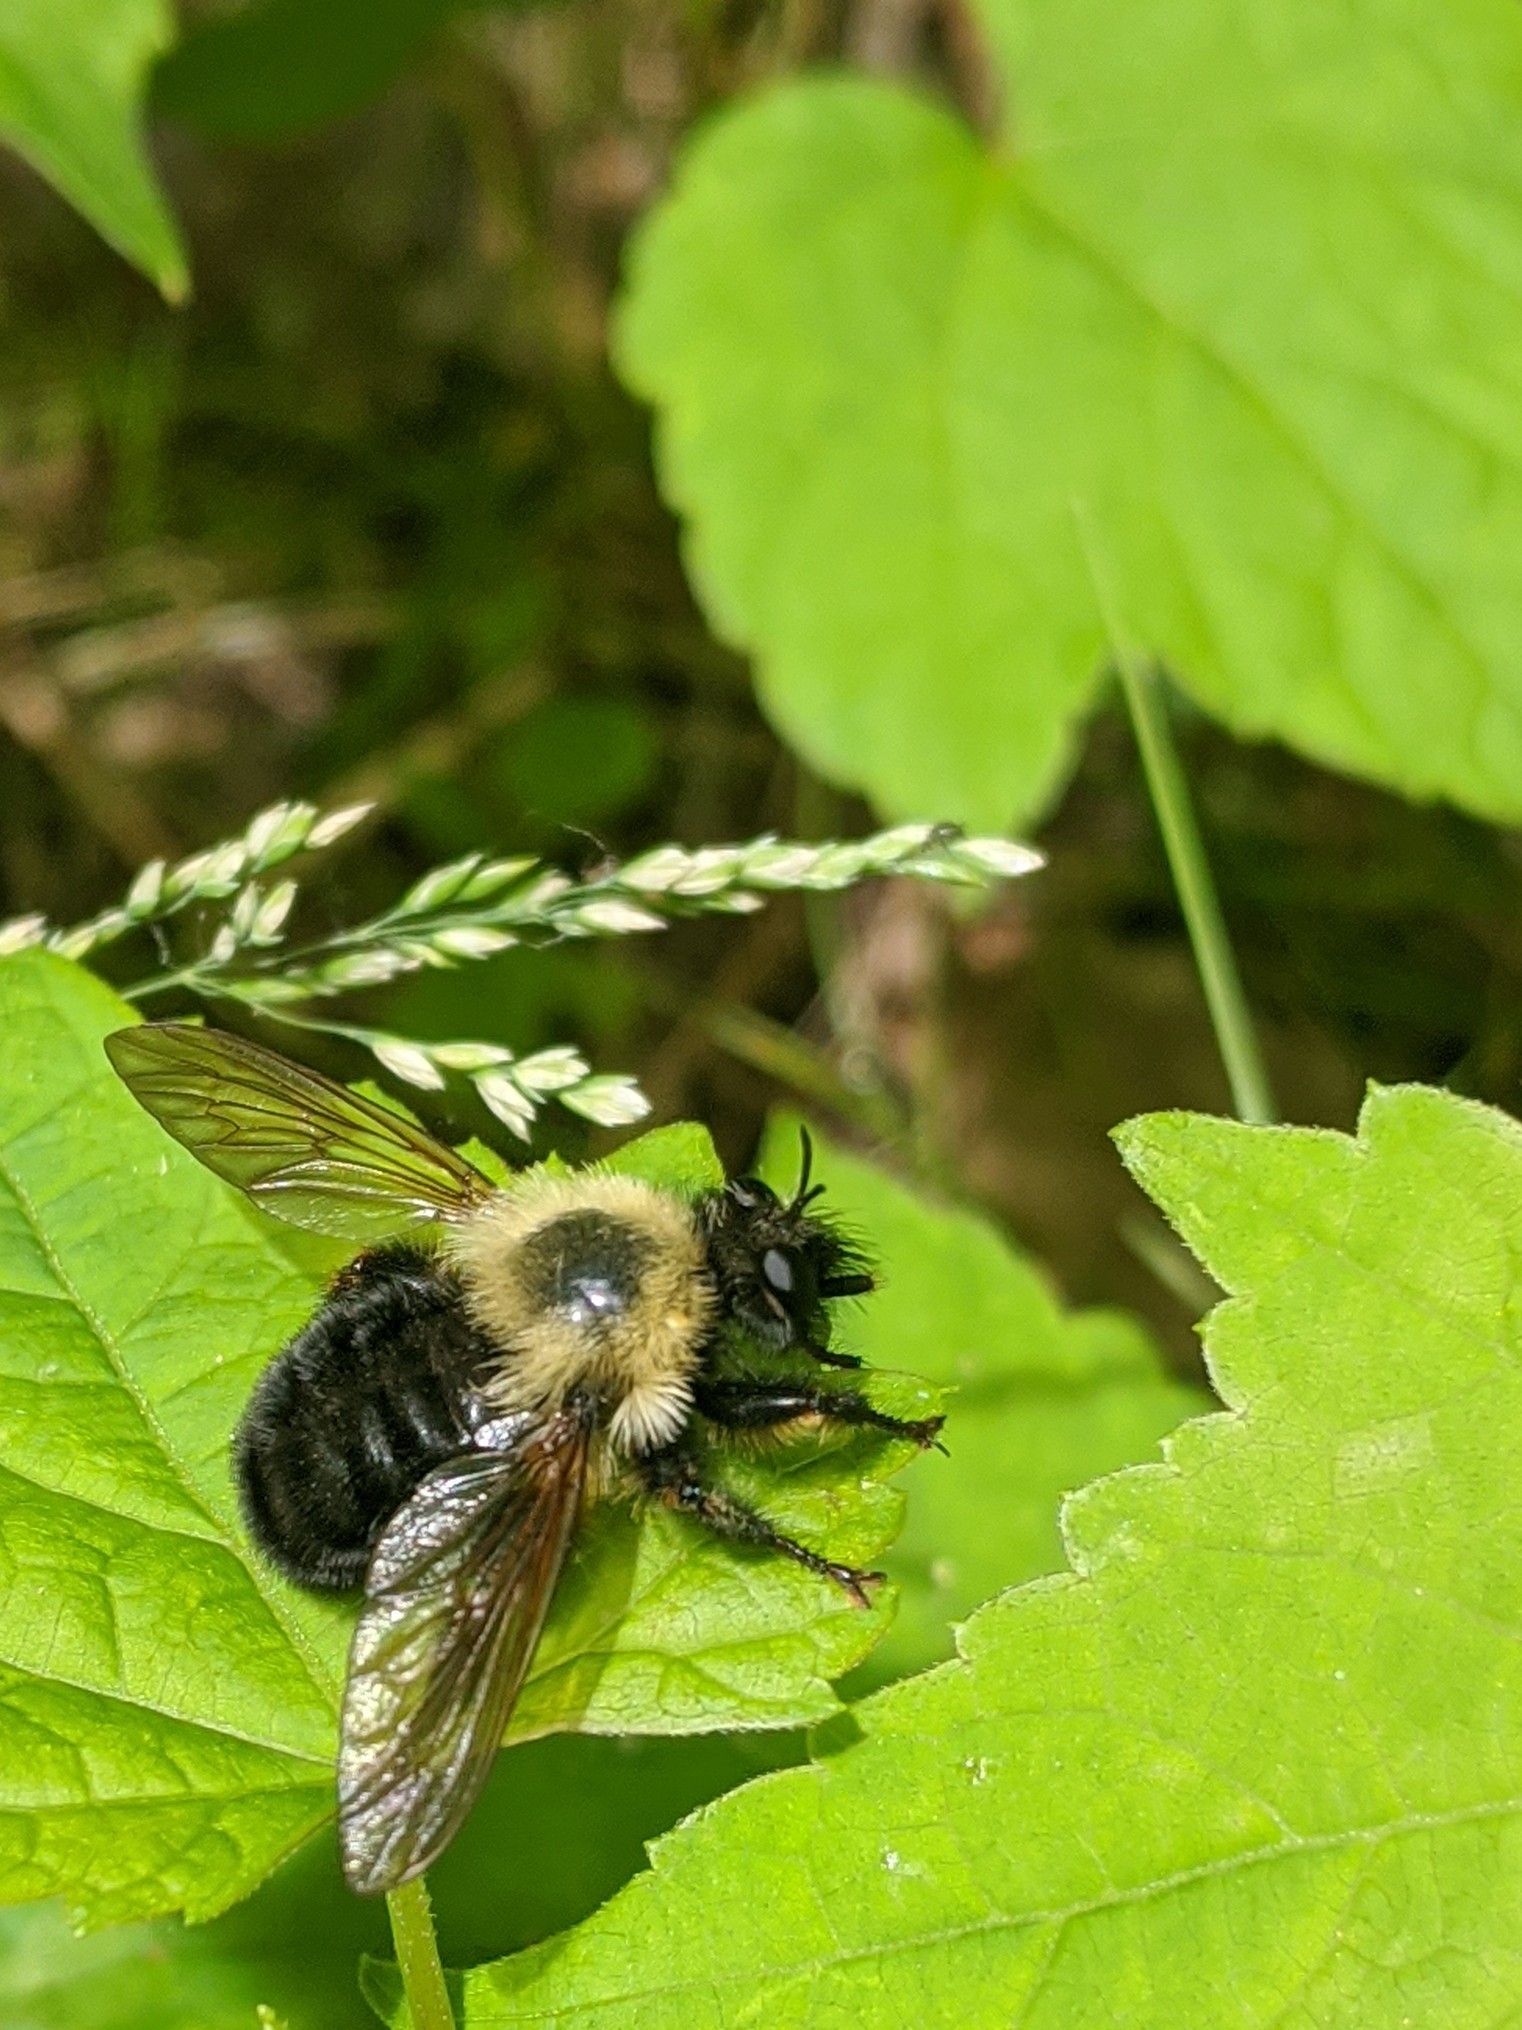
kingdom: Animalia
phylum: Arthropoda
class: Insecta
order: Diptera
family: Asilidae
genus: Laphria
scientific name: Laphria thoracica
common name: Bumble bee mimic robber fly
